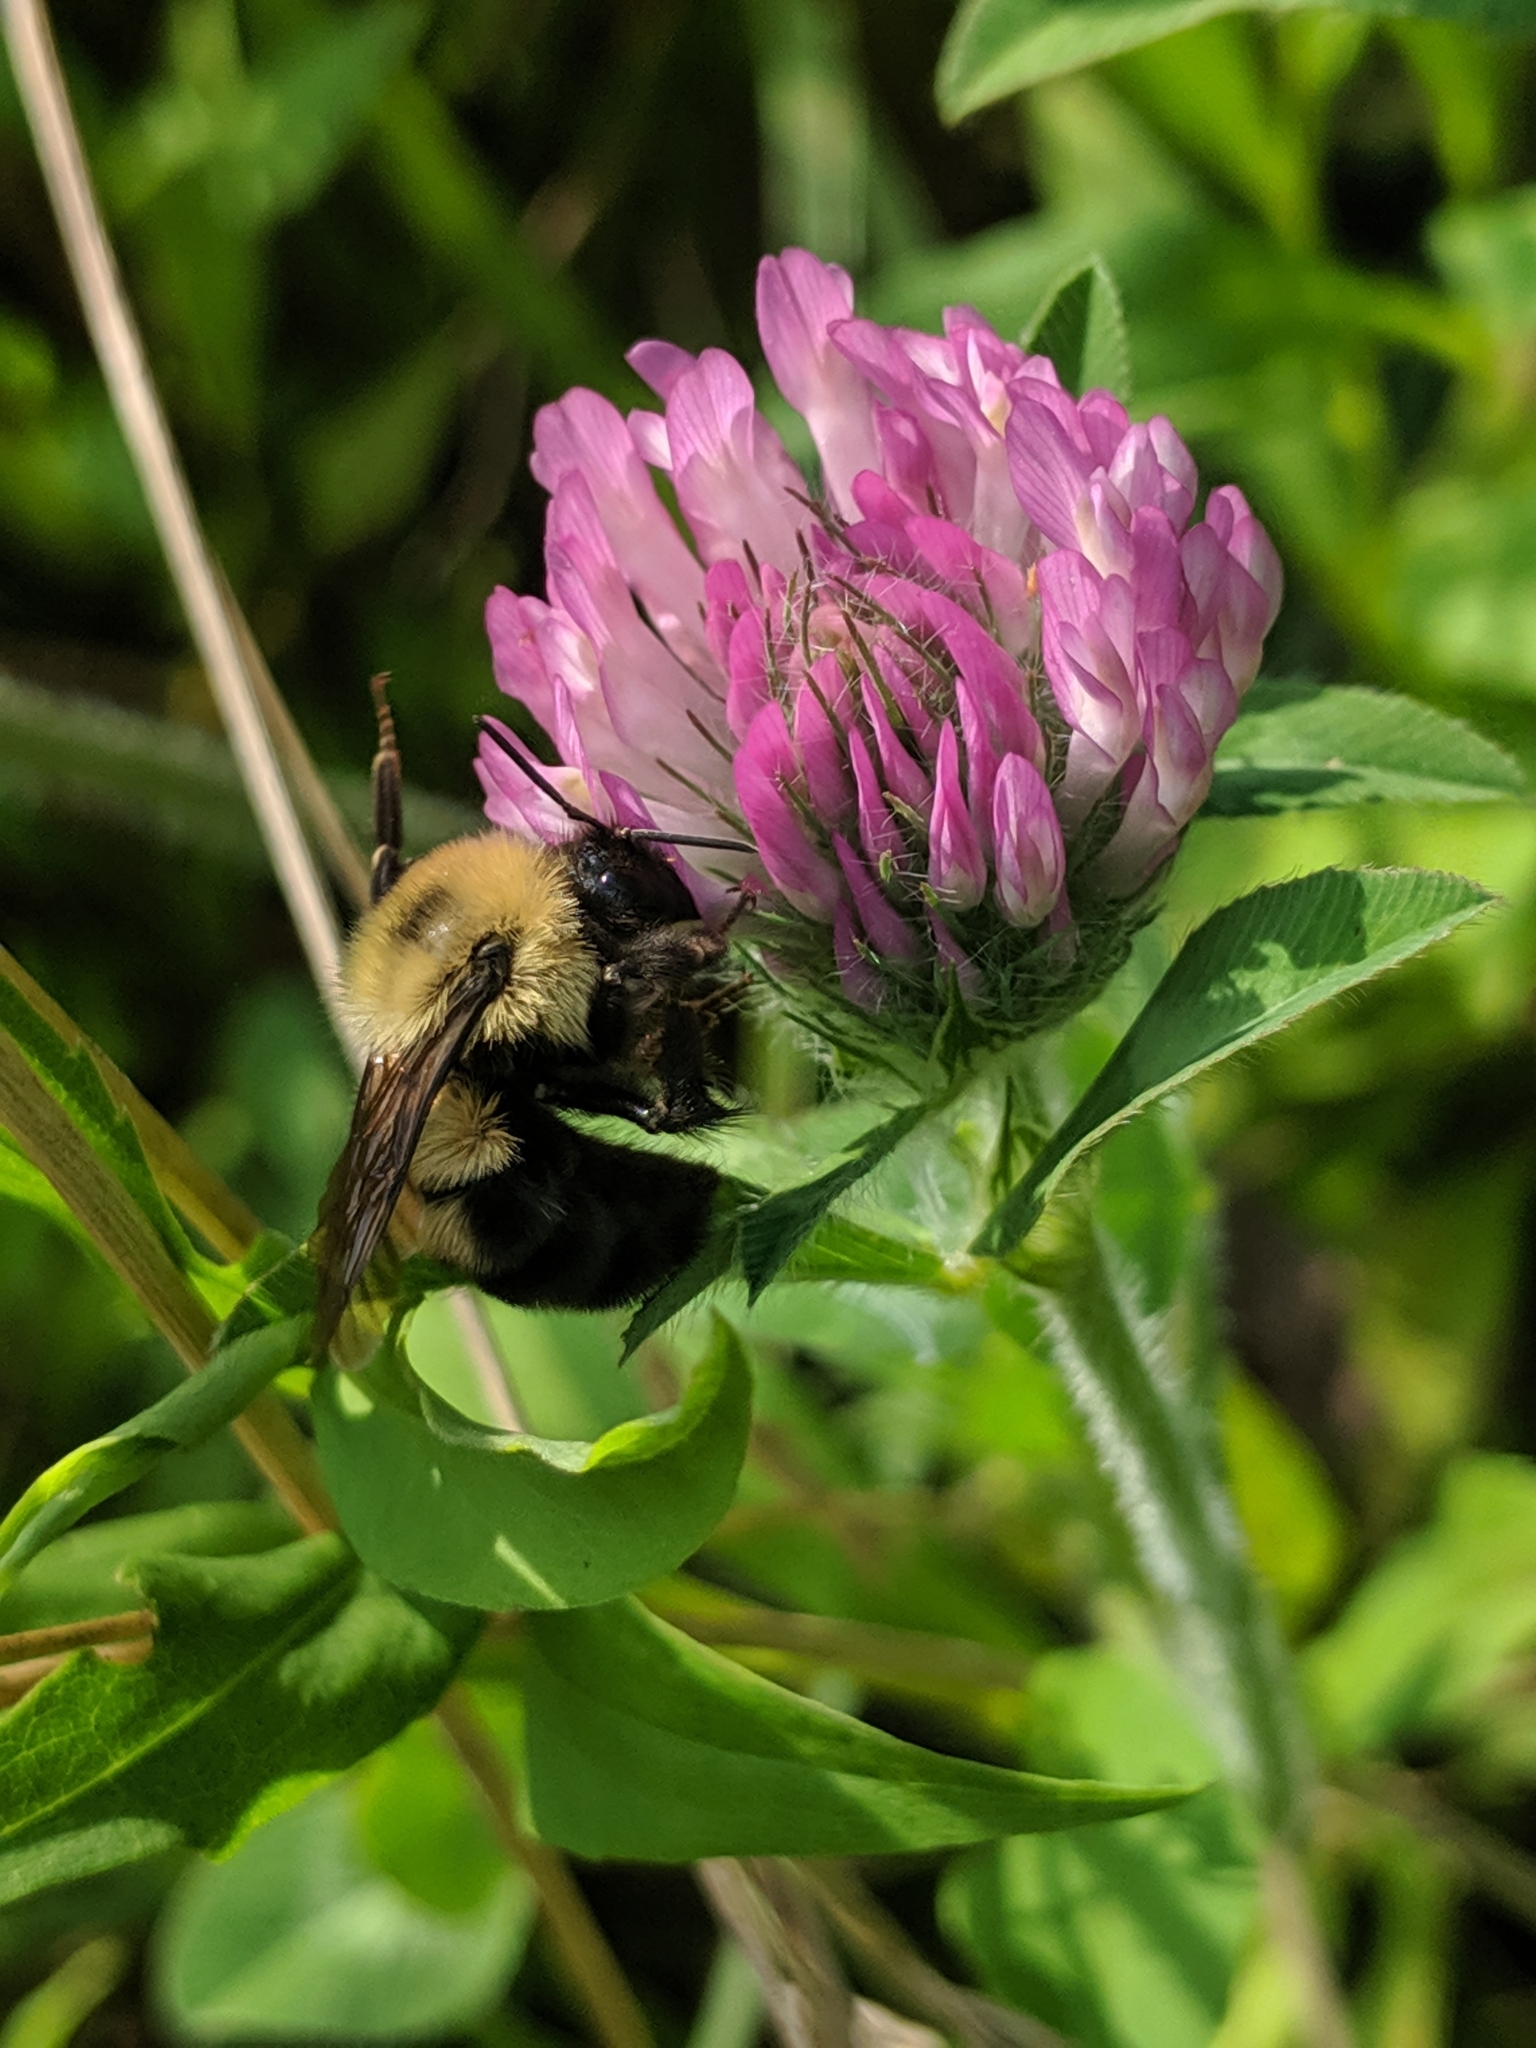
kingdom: Animalia
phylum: Arthropoda
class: Insecta
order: Hymenoptera
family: Apidae
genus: Bombus
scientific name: Bombus bimaculatus
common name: Two-spotted bumble bee
